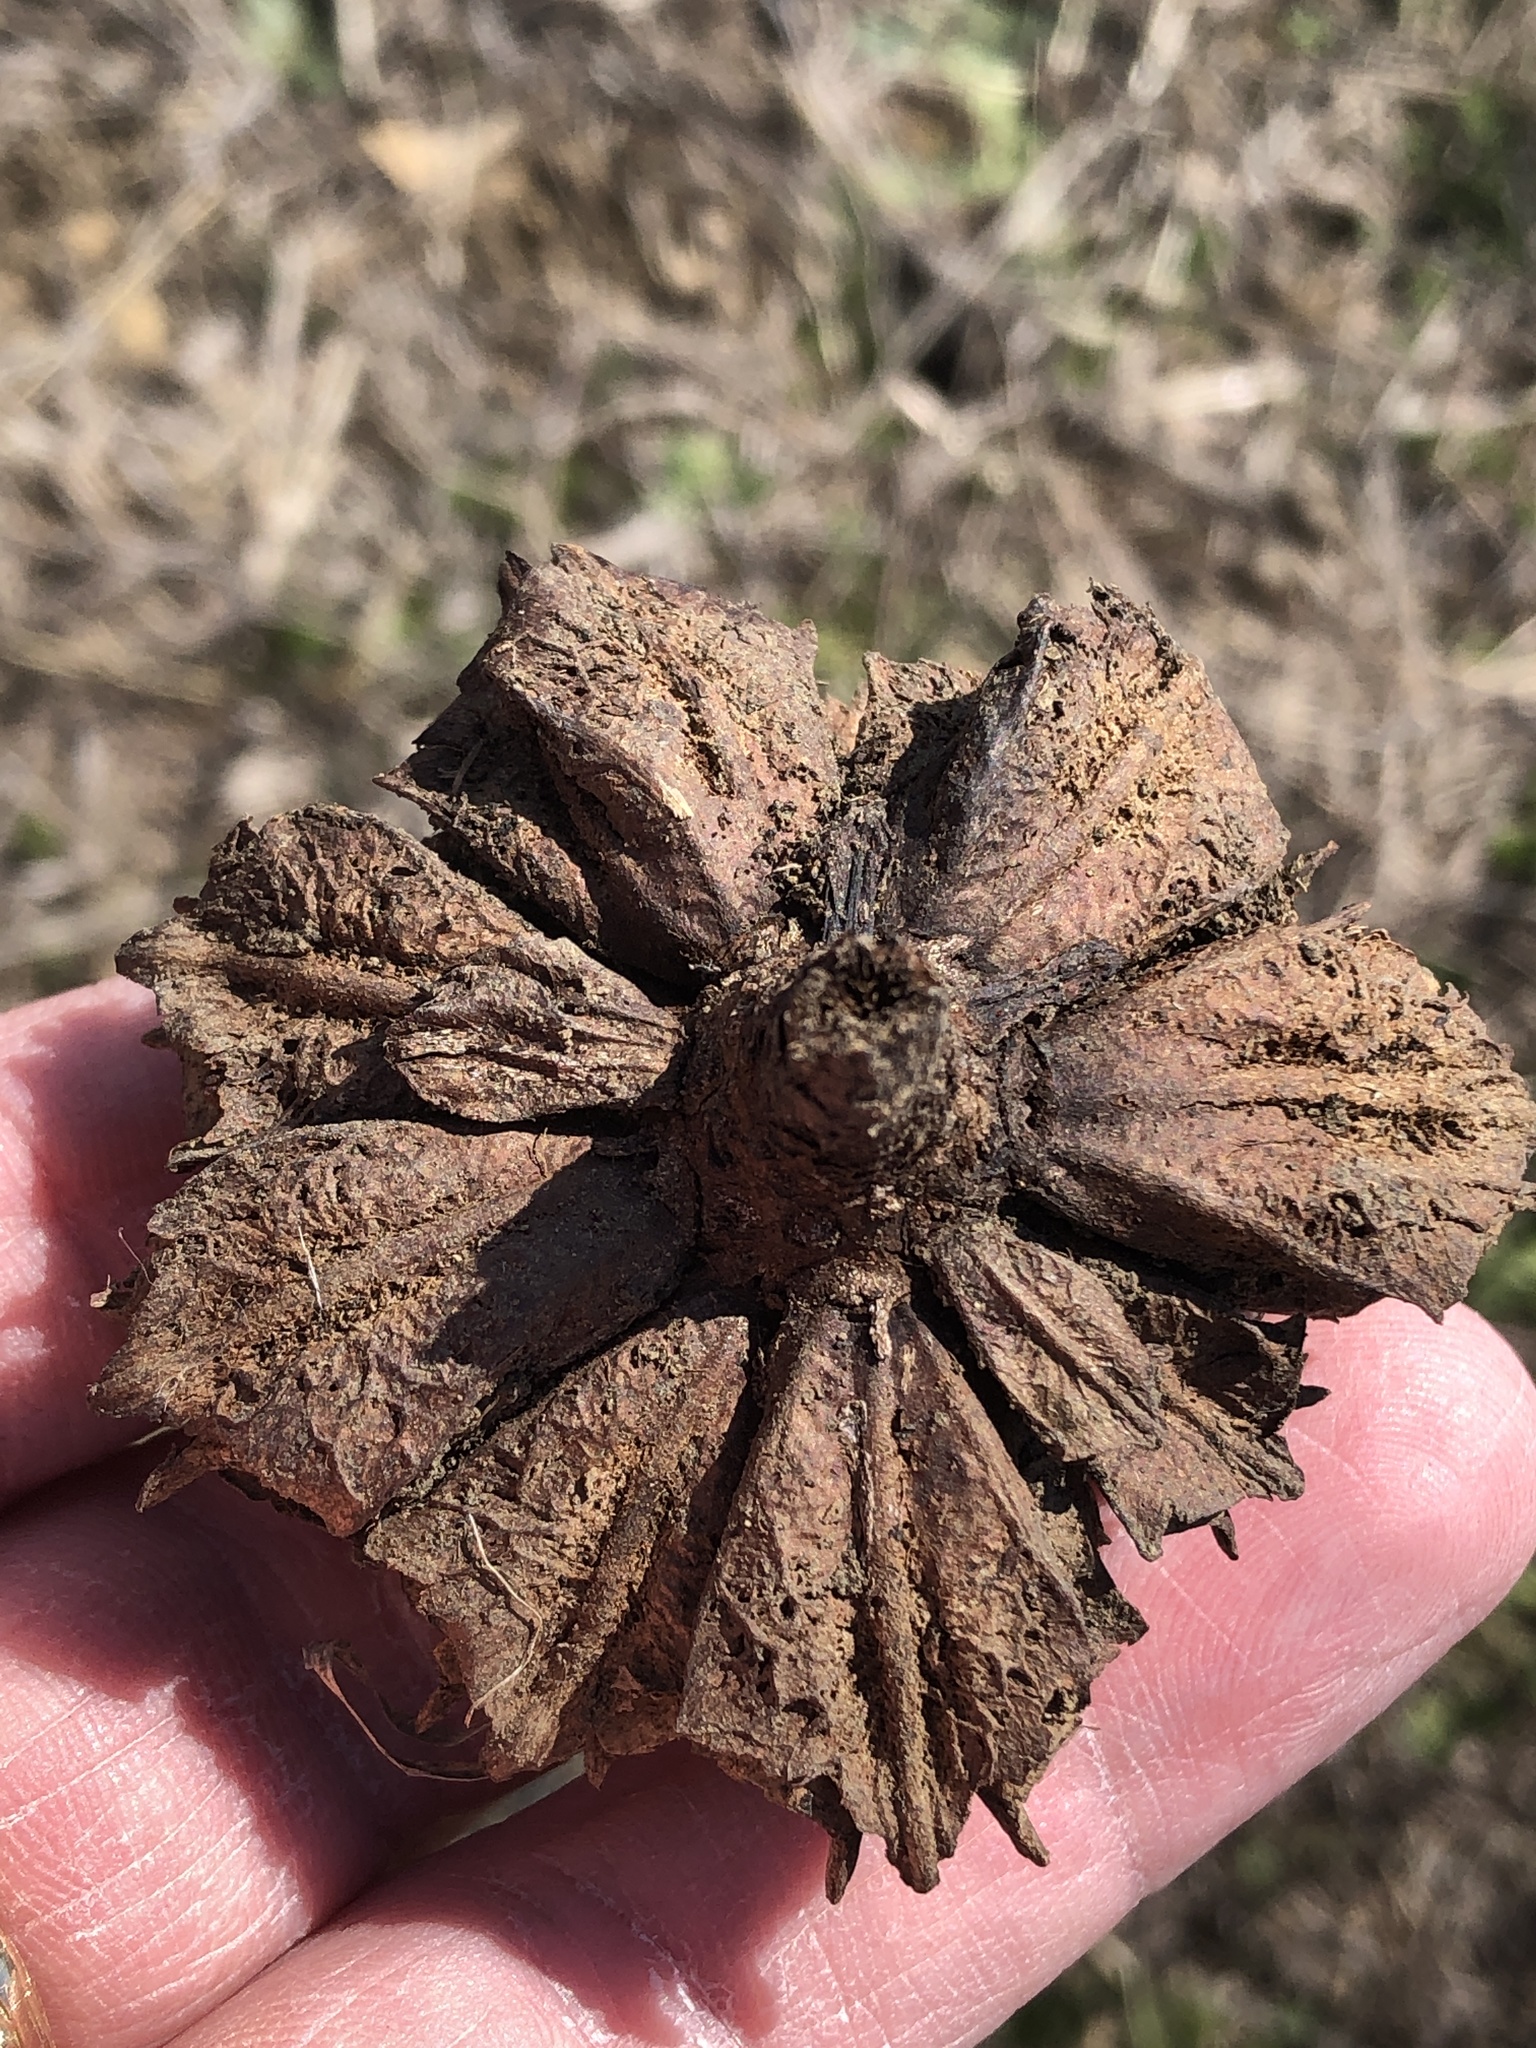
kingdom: Plantae
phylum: Tracheophyta
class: Magnoliopsida
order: Myrtales
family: Onagraceae
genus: Oenothera
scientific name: Oenothera triloba
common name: Sessile evening-primrose
